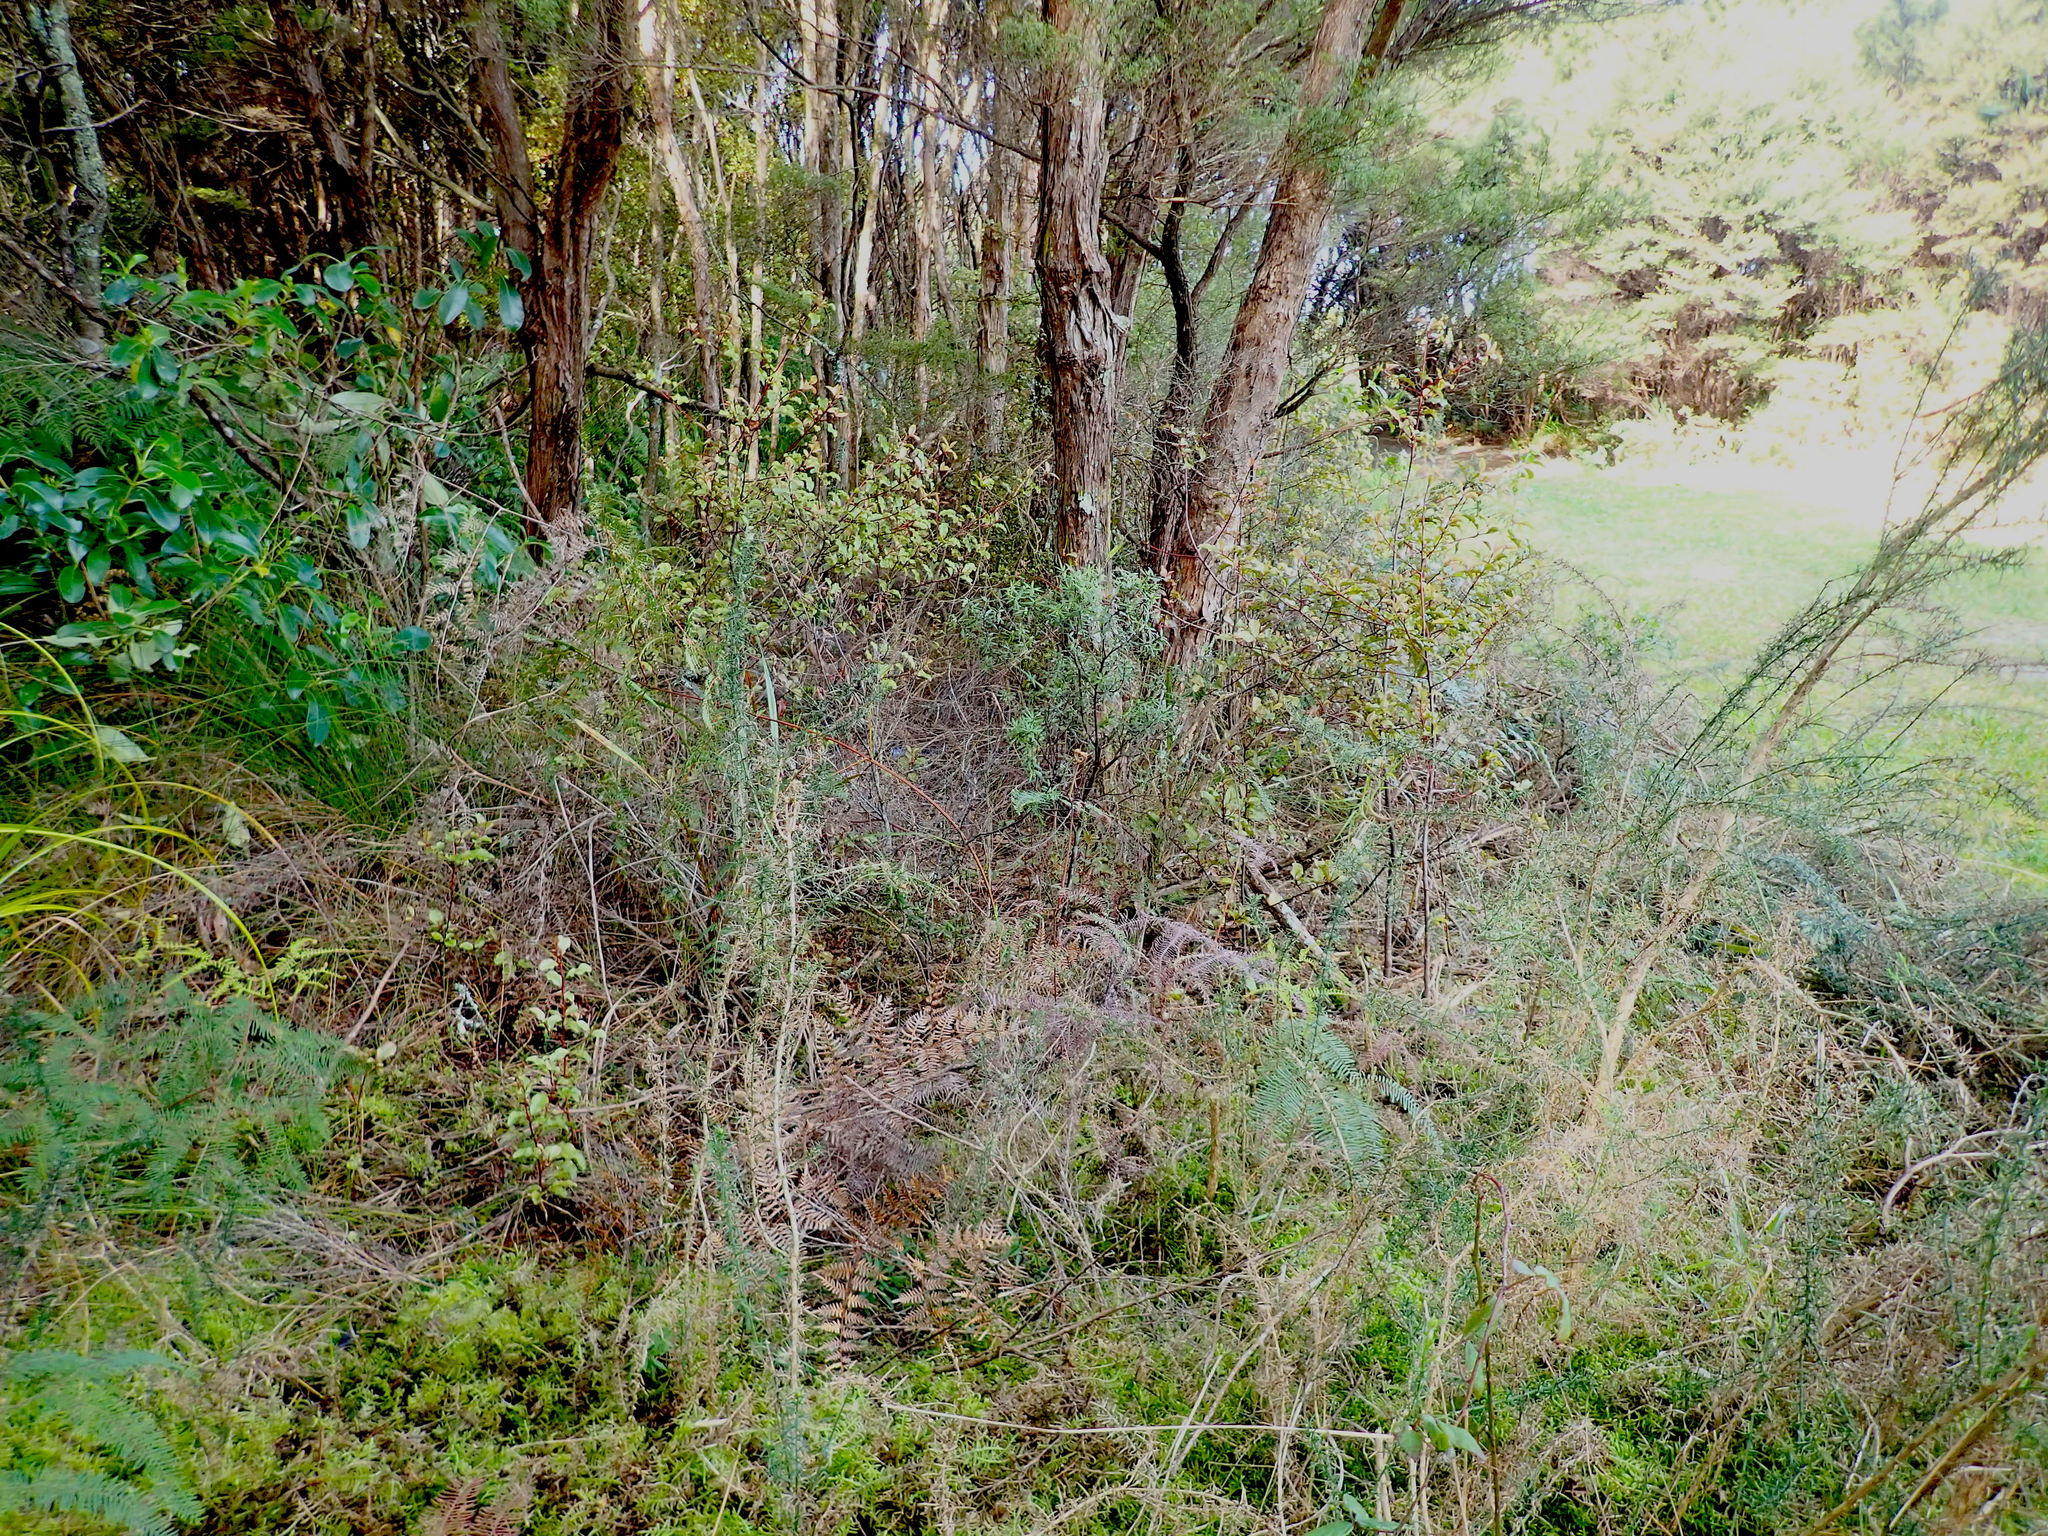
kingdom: Plantae
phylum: Tracheophyta
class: Magnoliopsida
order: Fabales
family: Fabaceae
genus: Ulex
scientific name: Ulex europaeus
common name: Common gorse
